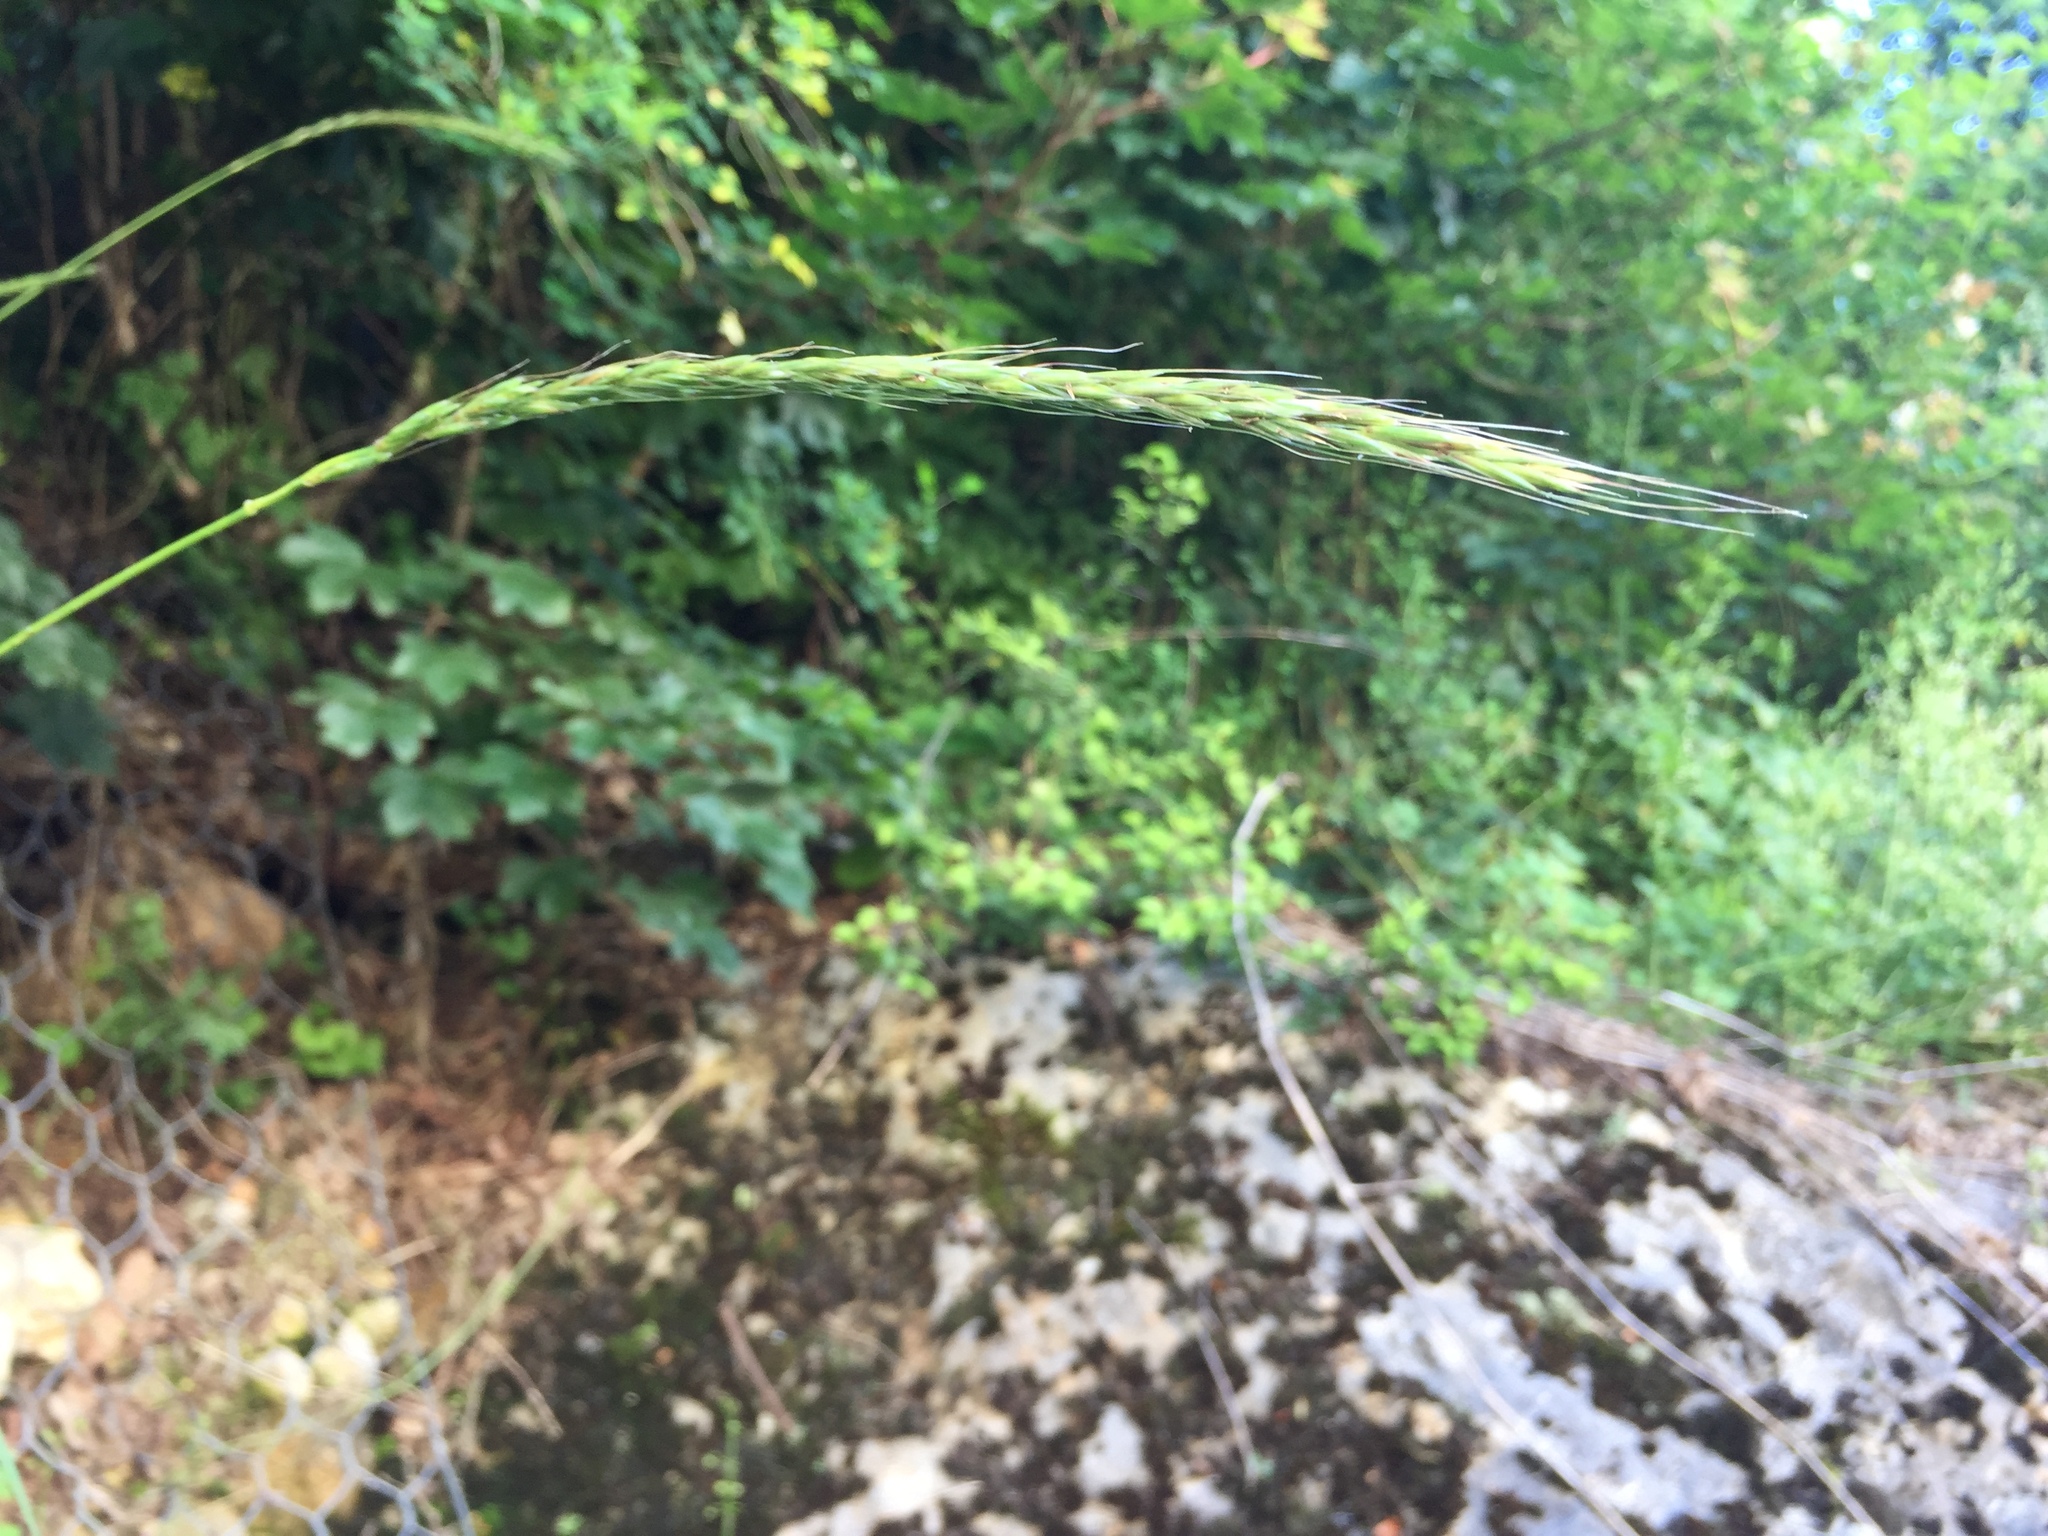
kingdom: Plantae
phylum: Tracheophyta
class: Liliopsida
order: Poales
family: Poaceae
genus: Hordelymus
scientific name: Hordelymus europaeus
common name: Wood-barley
